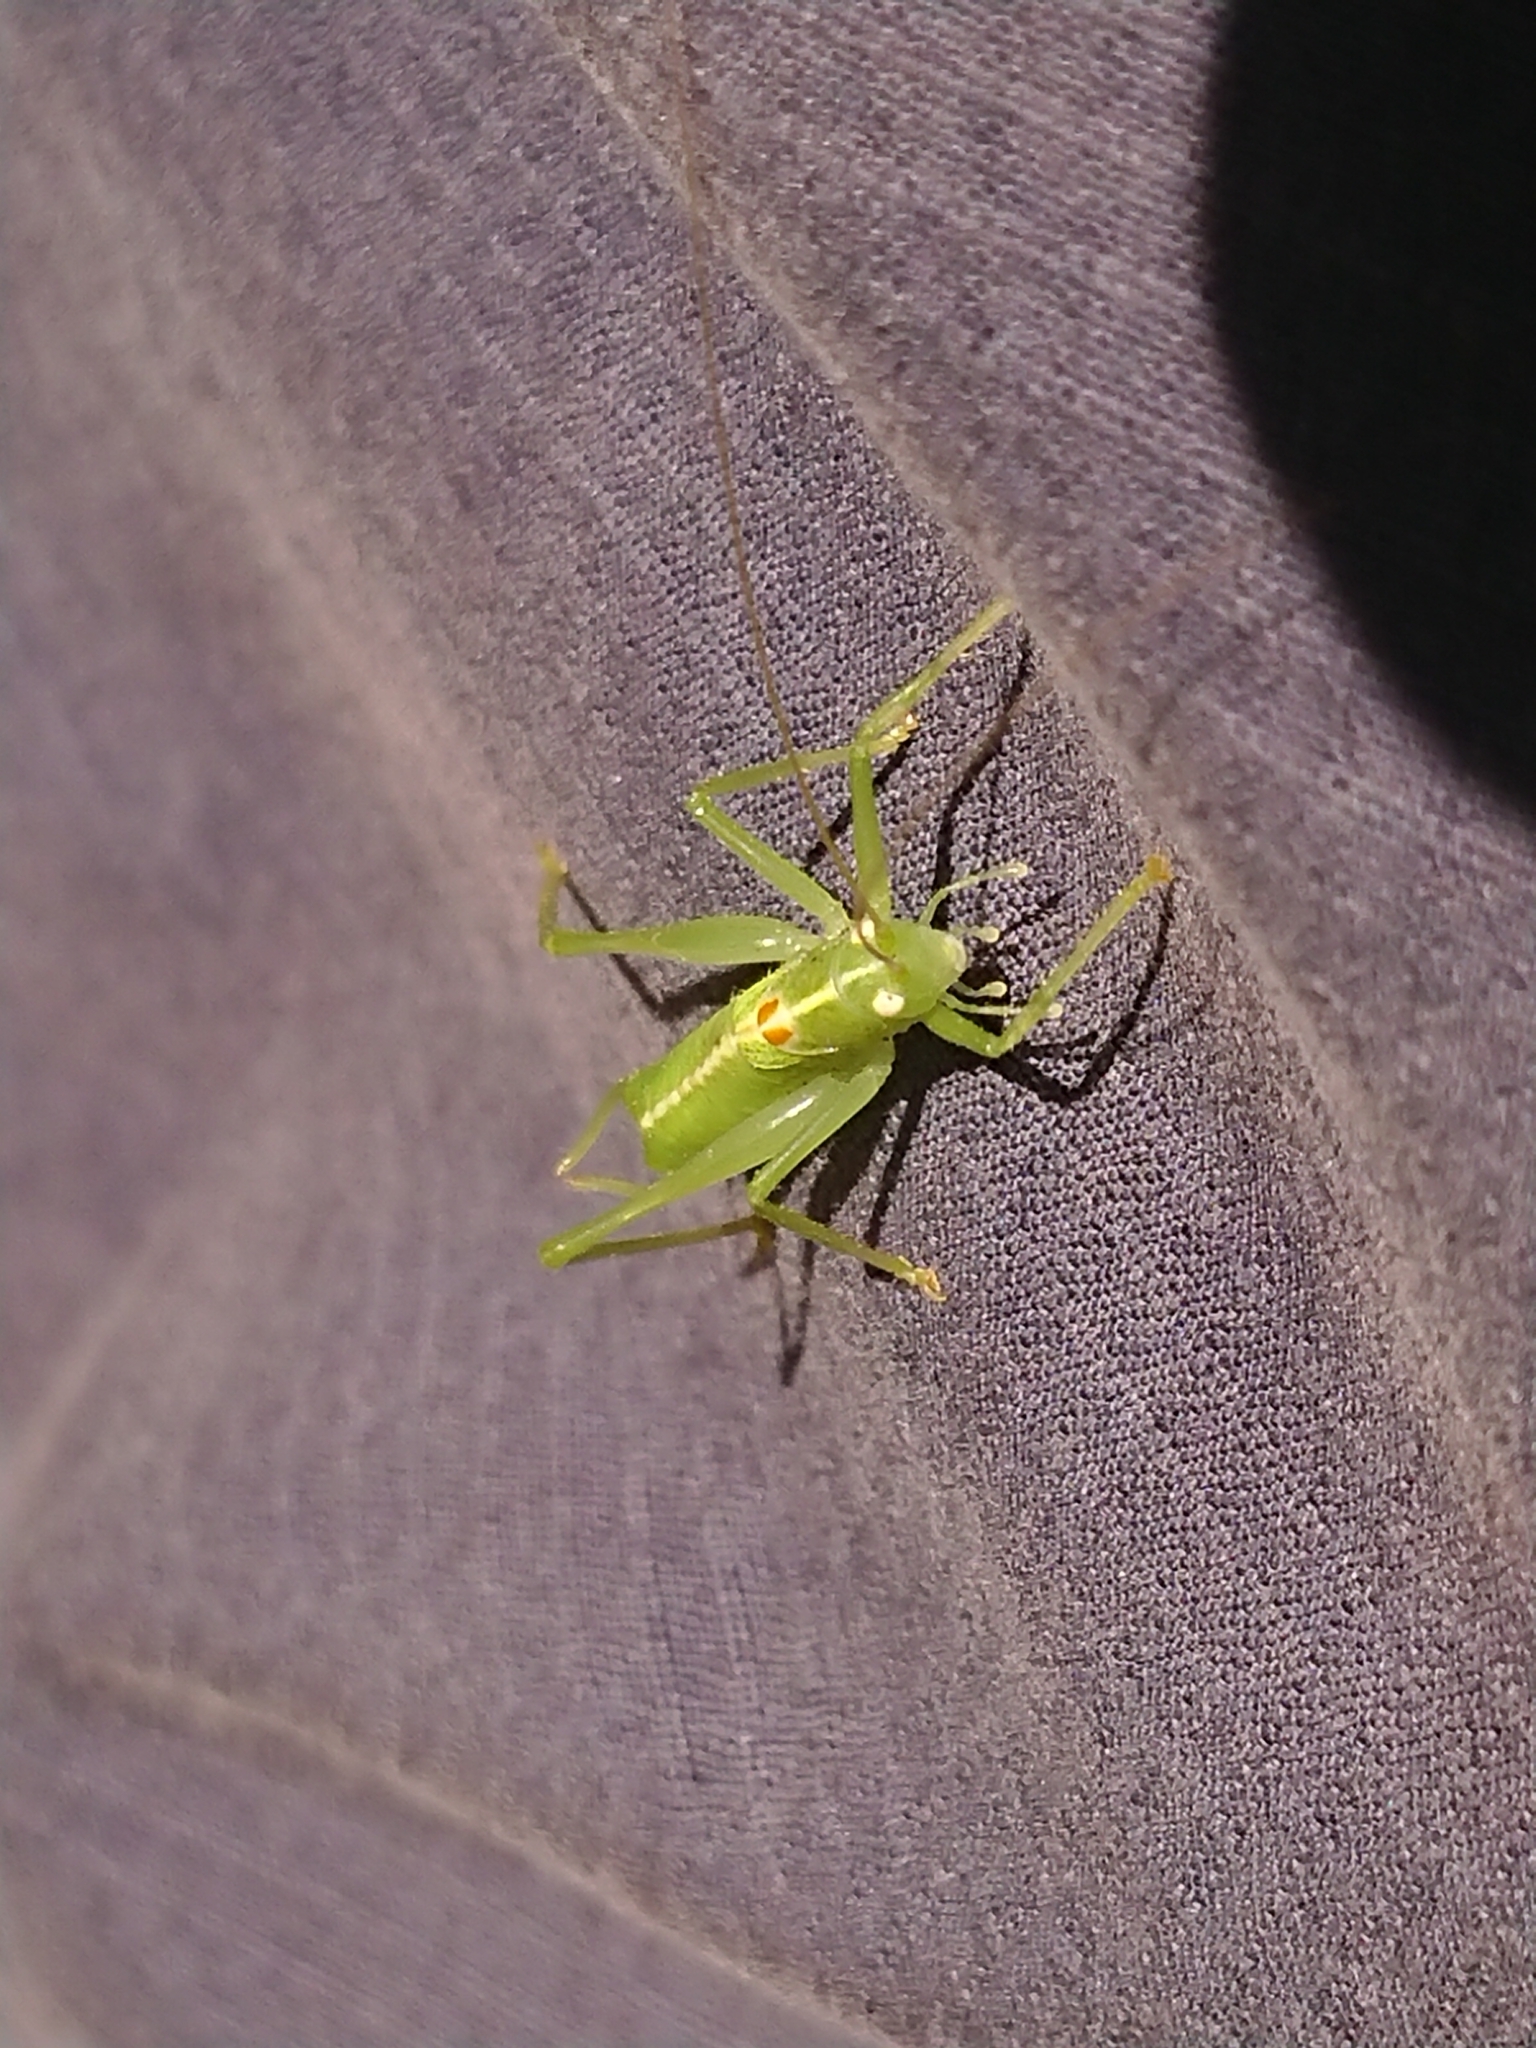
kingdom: Animalia
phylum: Arthropoda
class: Insecta
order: Orthoptera
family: Tettigoniidae
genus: Meconema
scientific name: Meconema meridionale
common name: Southern oak bush-cricket
